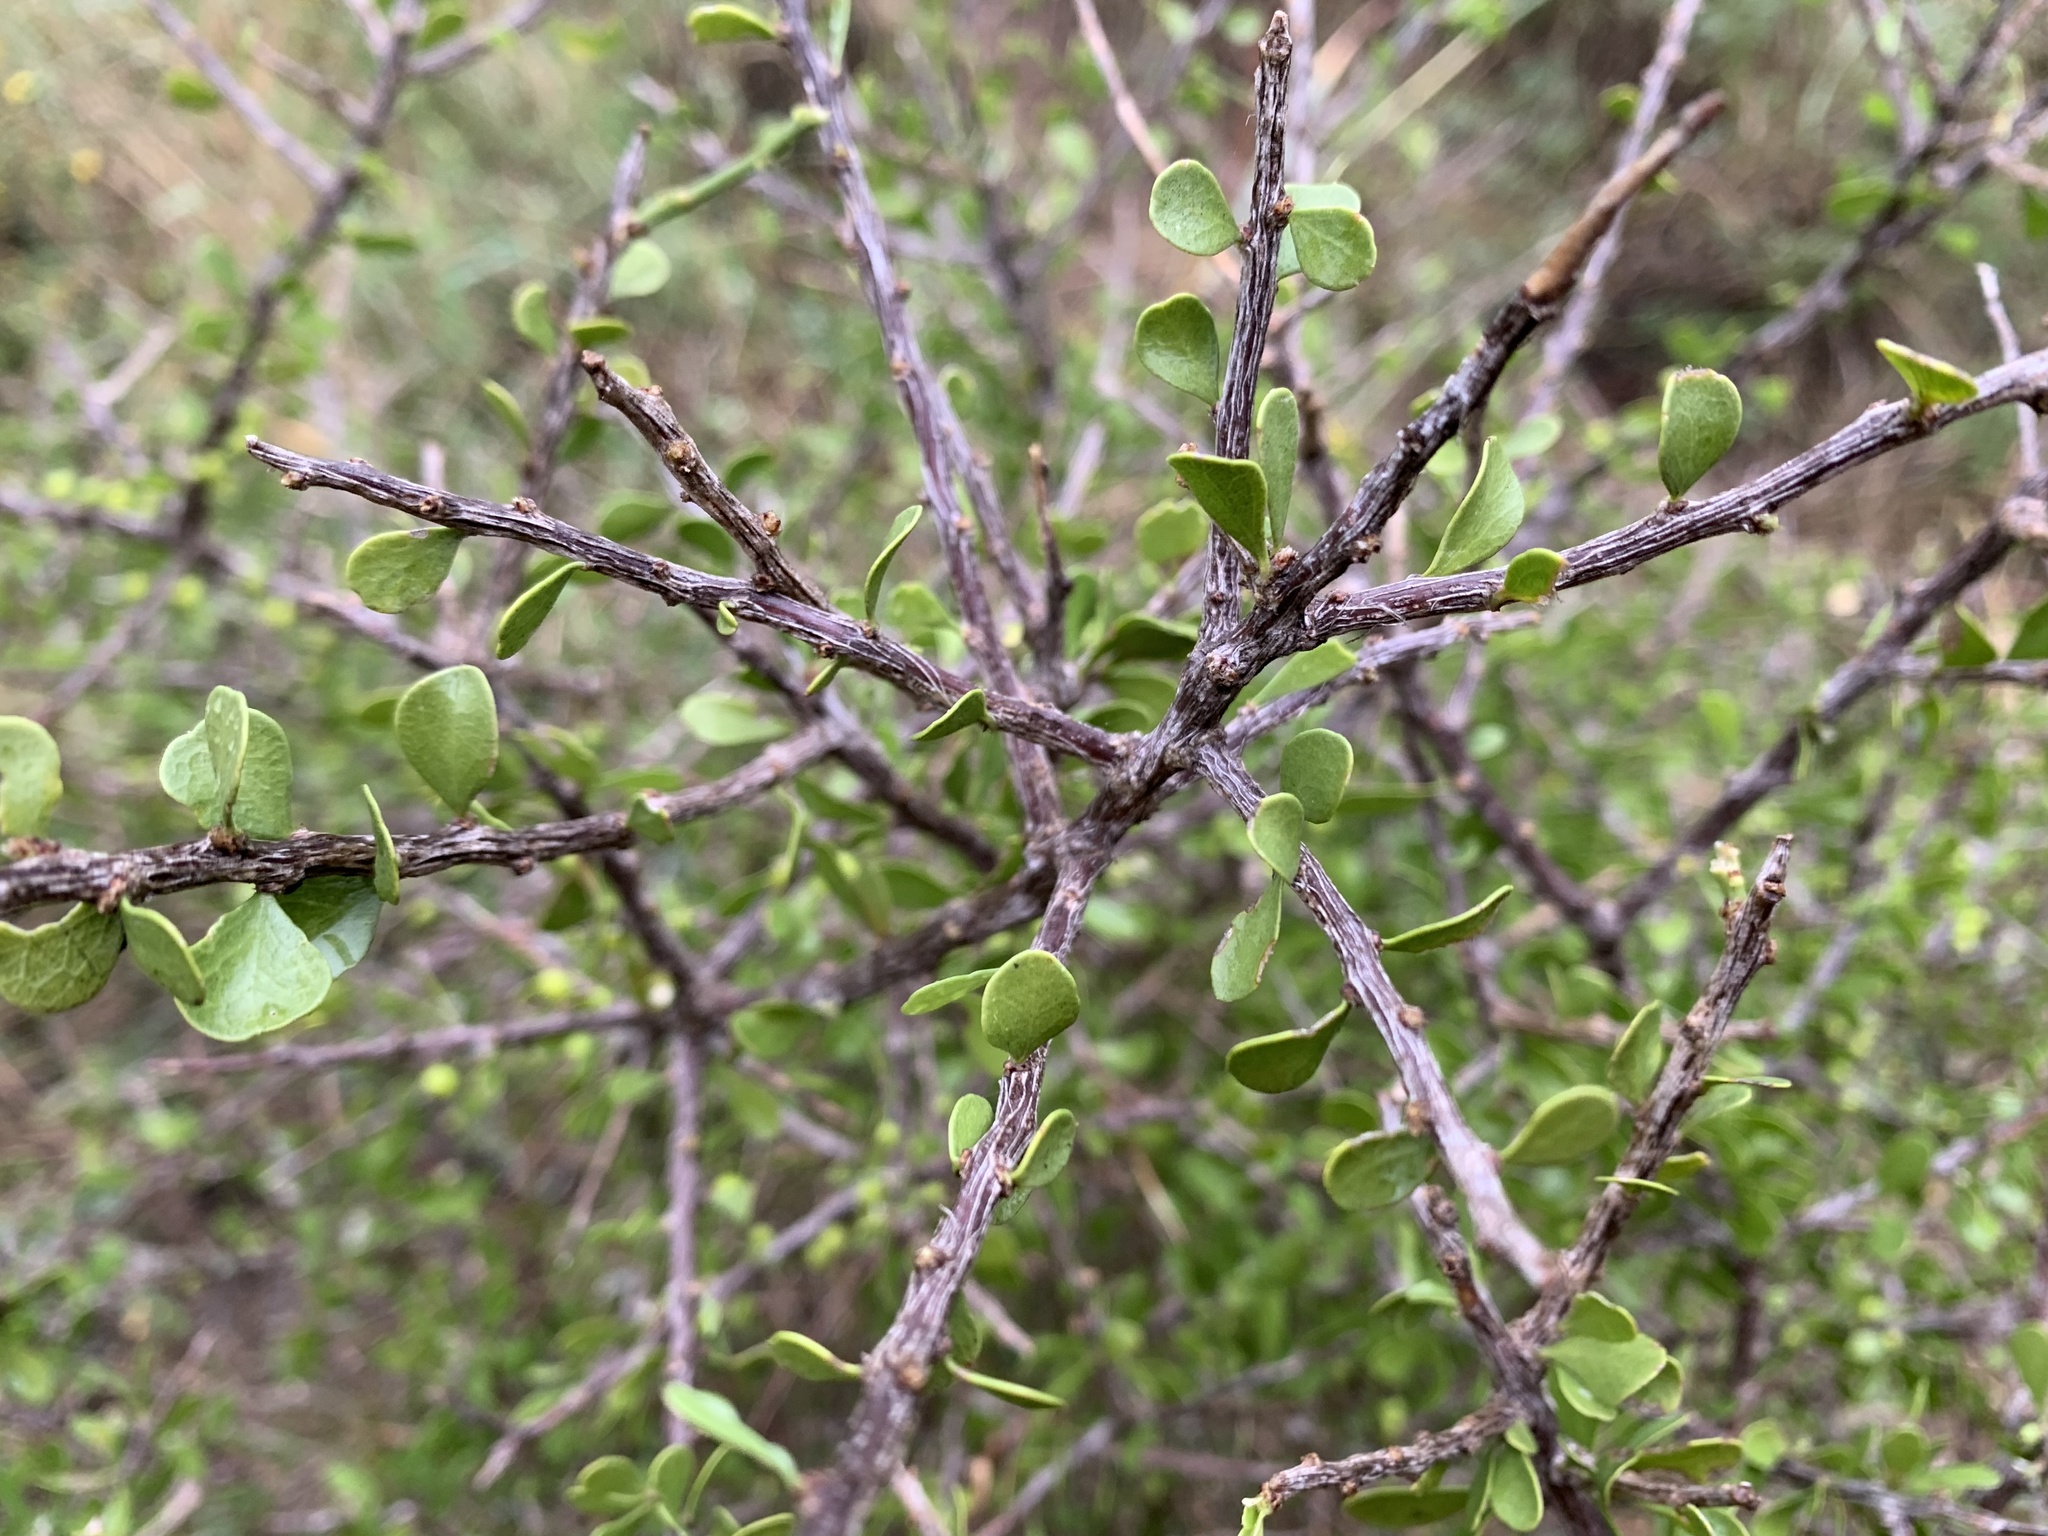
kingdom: Plantae
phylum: Tracheophyta
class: Magnoliopsida
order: Celastrales
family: Celastraceae
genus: Schaefferia
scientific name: Schaefferia cuneifolia
